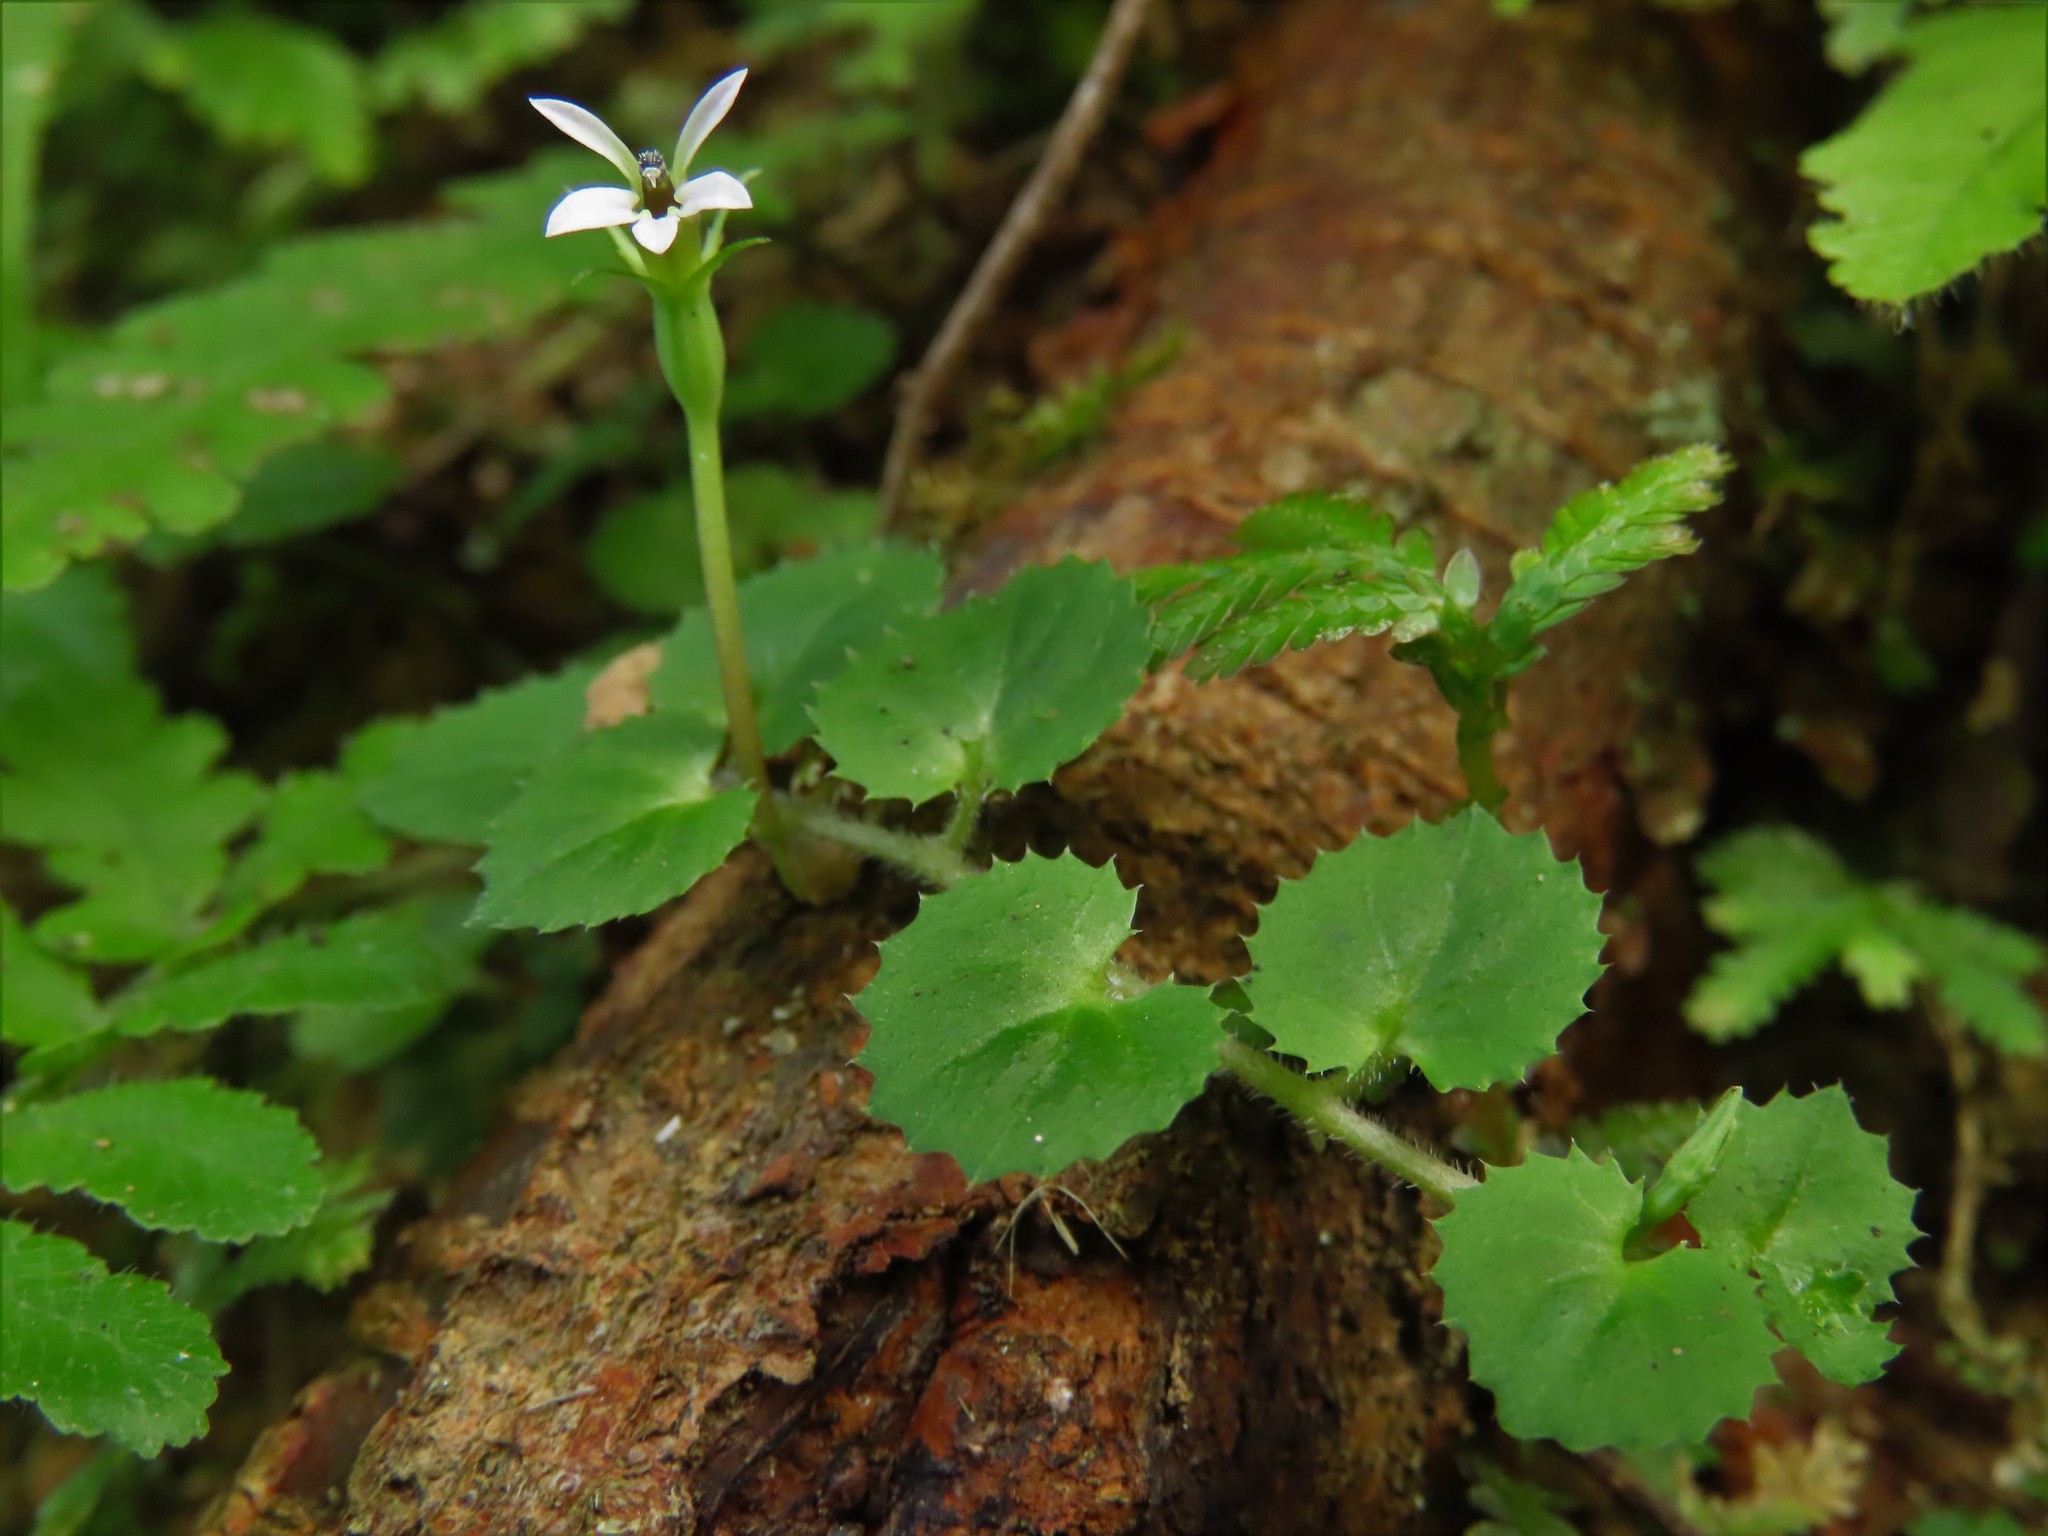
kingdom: Plantae
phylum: Tracheophyta
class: Magnoliopsida
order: Asterales
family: Campanulaceae
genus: Lobelia
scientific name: Lobelia nummularia
